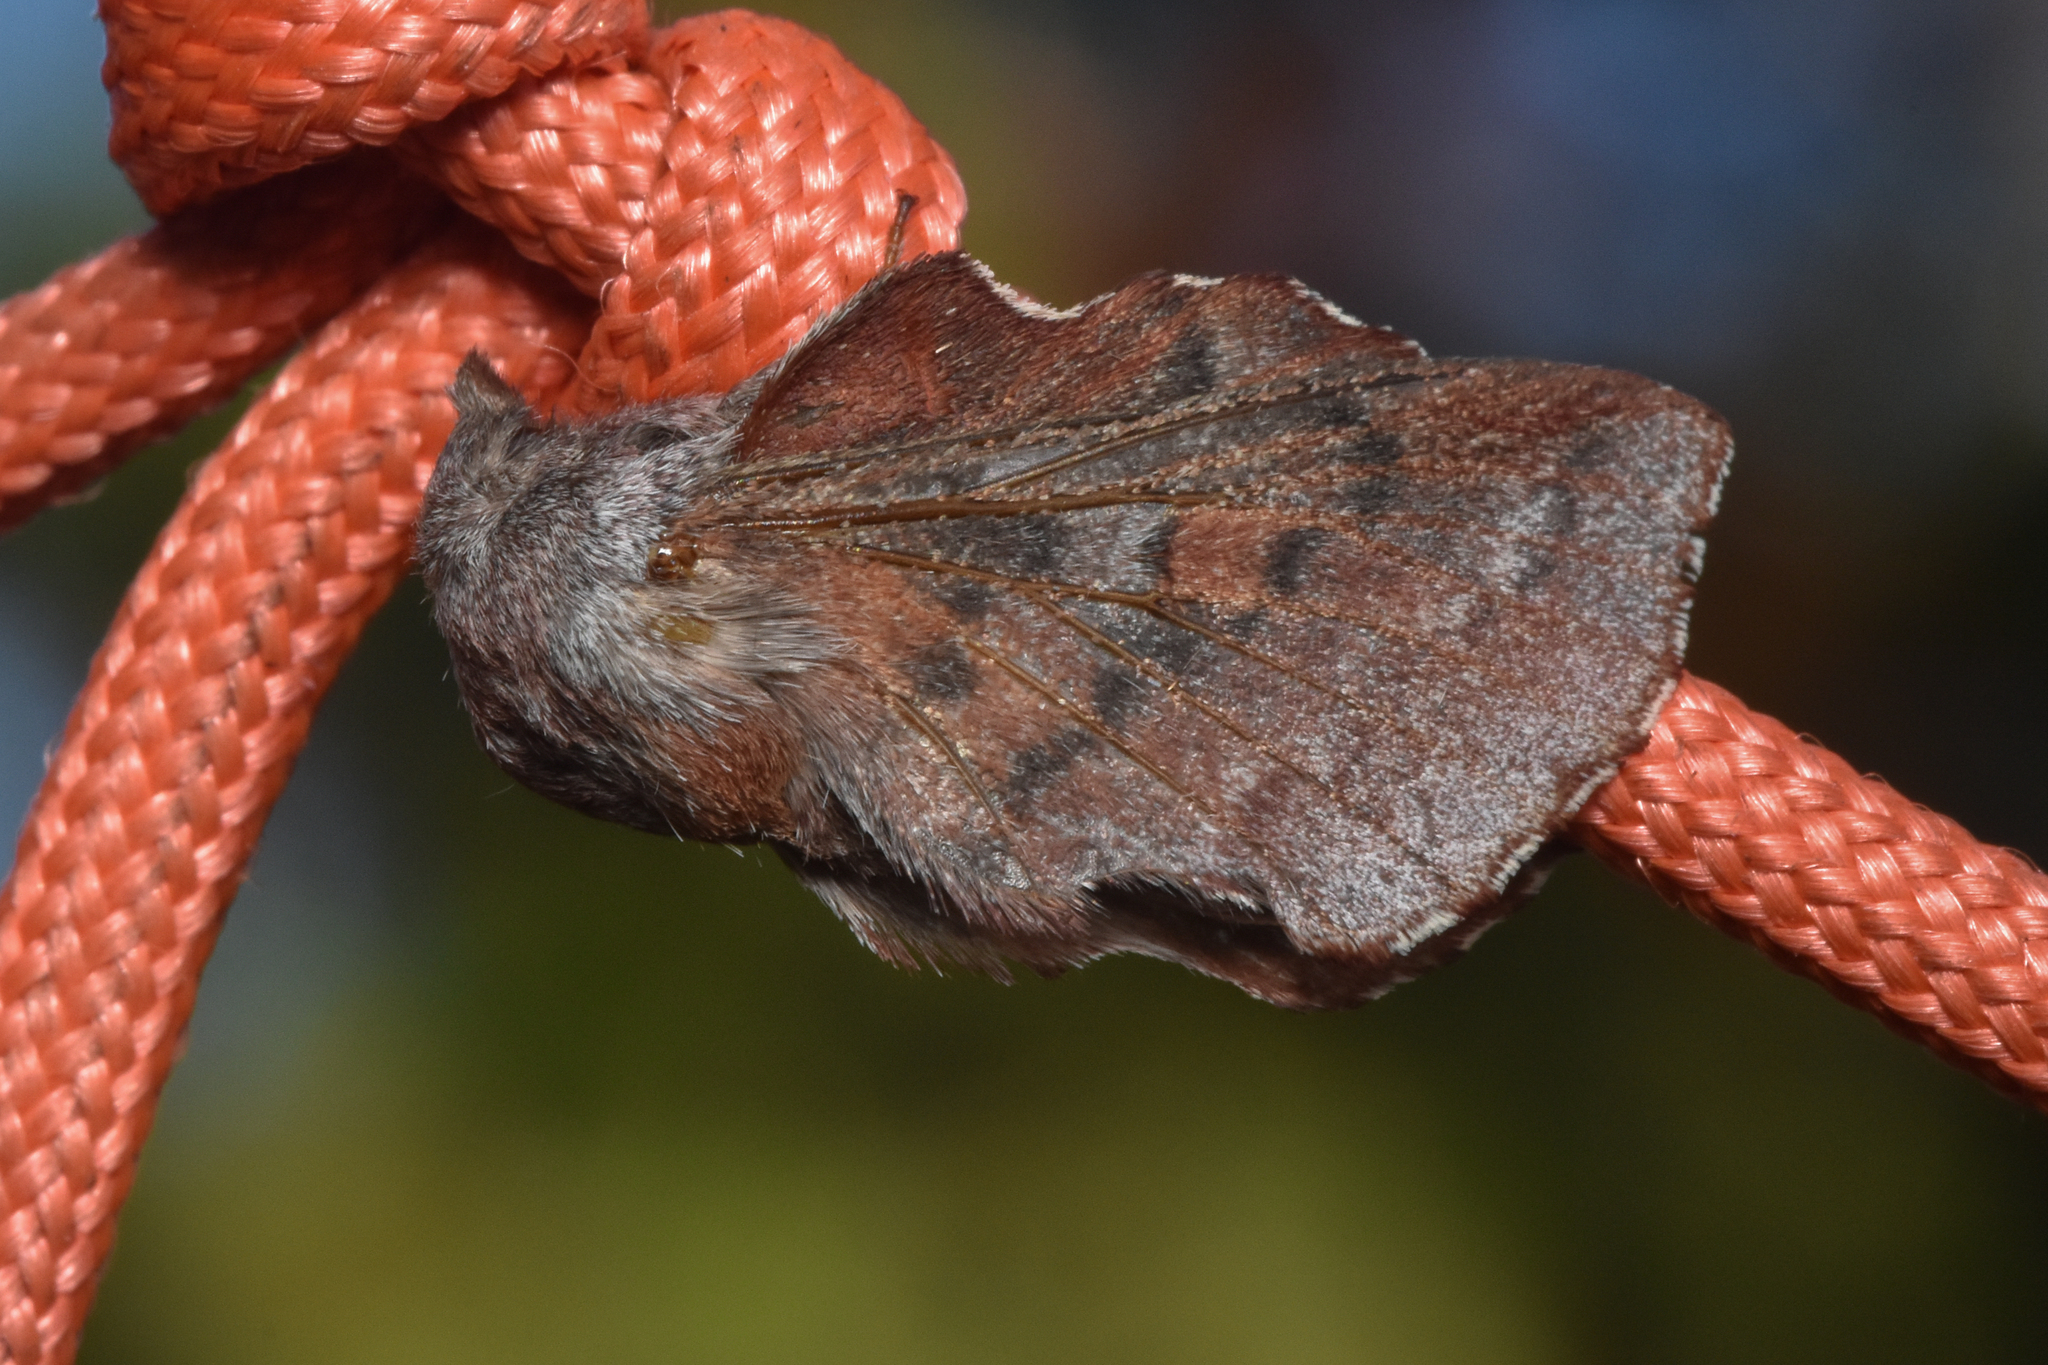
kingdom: Animalia
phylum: Arthropoda
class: Insecta
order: Lepidoptera
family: Lasiocampidae
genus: Phyllodesma
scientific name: Phyllodesma americana
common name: American lappet moth
